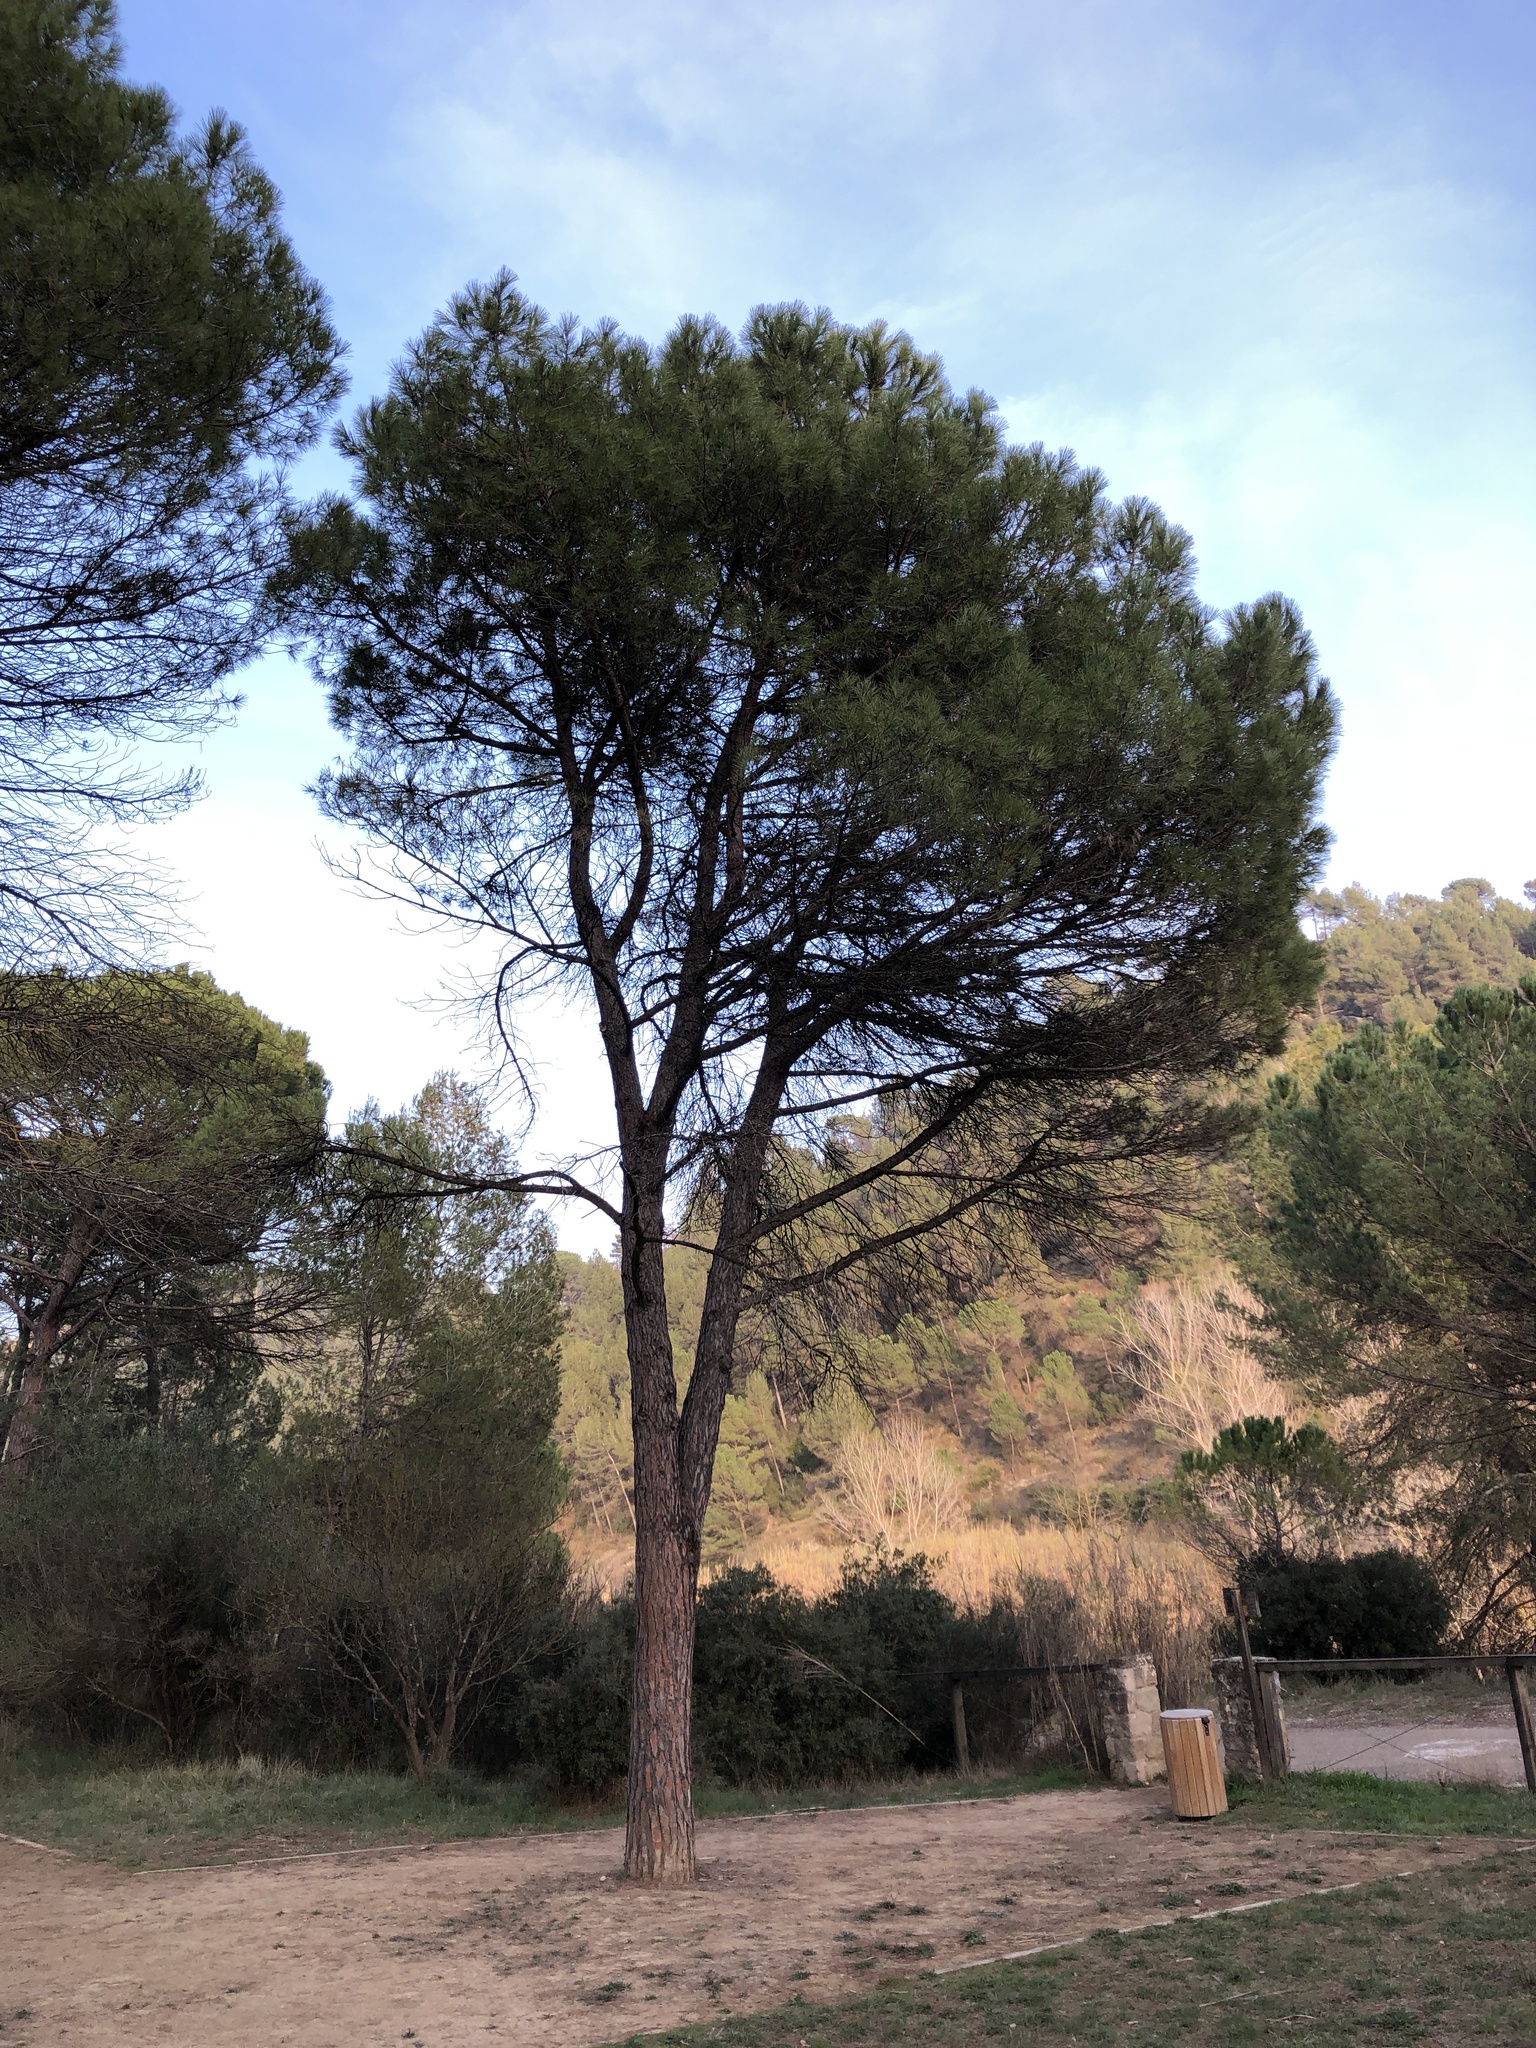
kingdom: Plantae
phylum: Tracheophyta
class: Pinopsida
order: Pinales
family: Pinaceae
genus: Pinus
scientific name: Pinus pinea
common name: Italian stone pine
